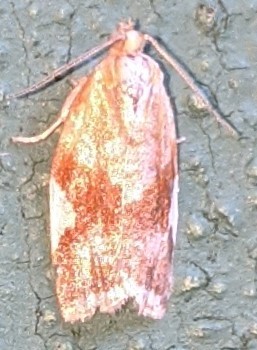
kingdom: Animalia
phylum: Arthropoda
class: Insecta
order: Lepidoptera
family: Tortricidae
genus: Clepsis
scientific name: Clepsis persicana
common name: White triangle tortrix
